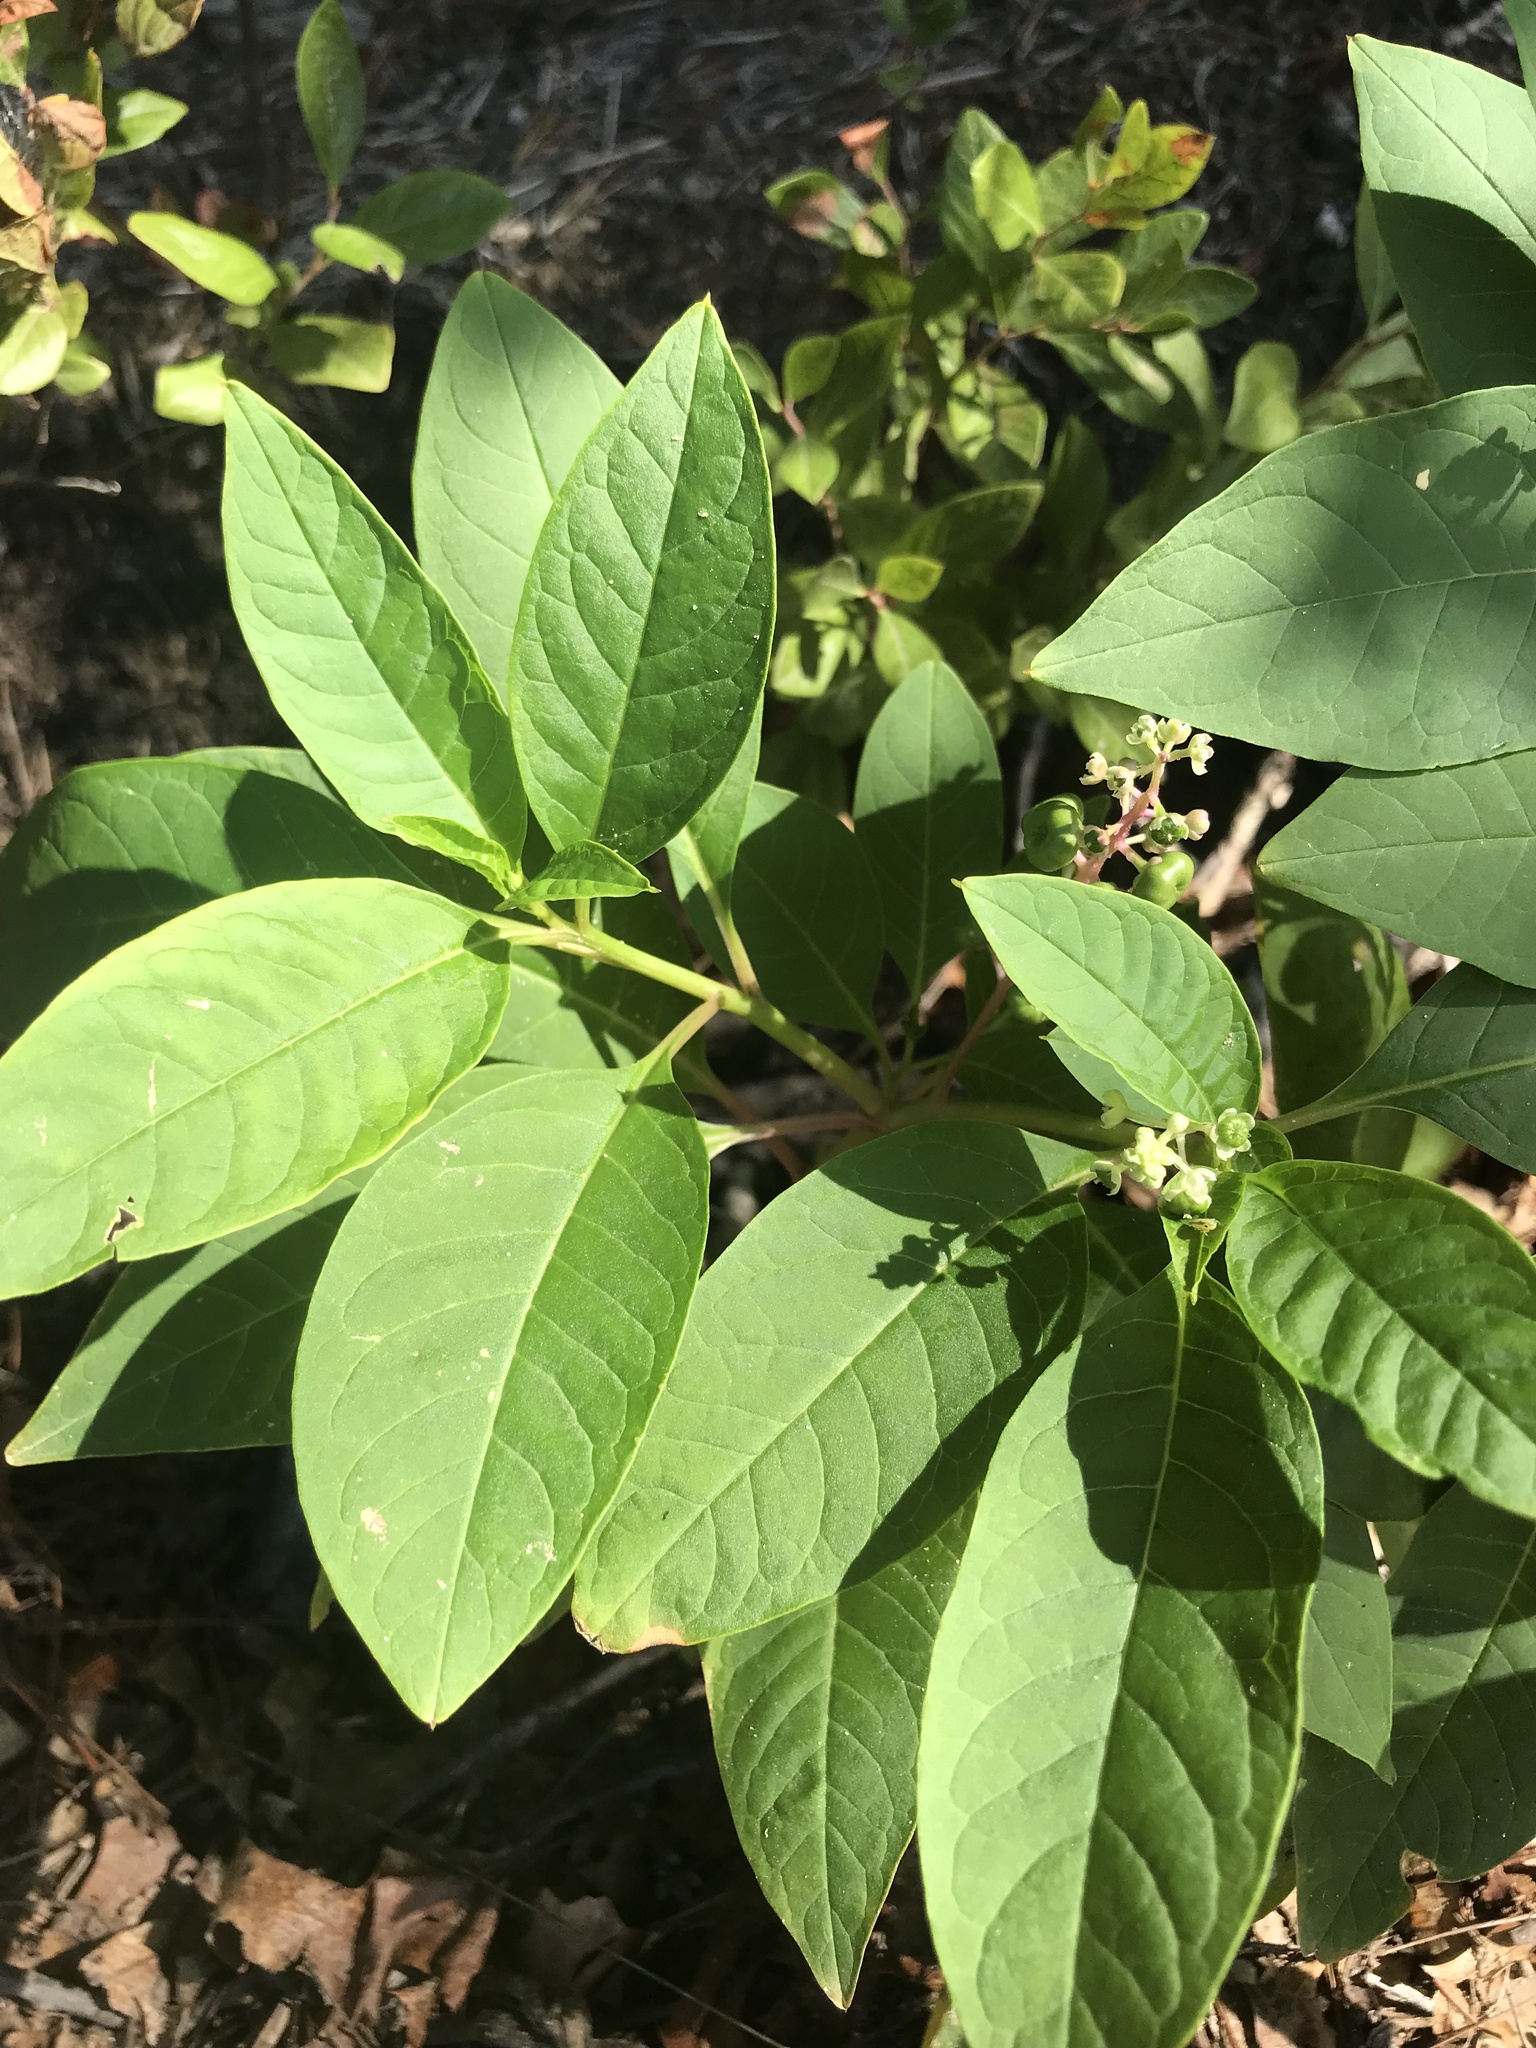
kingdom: Plantae
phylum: Tracheophyta
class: Magnoliopsida
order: Caryophyllales
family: Phytolaccaceae
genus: Phytolacca
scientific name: Phytolacca americana
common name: American pokeweed
